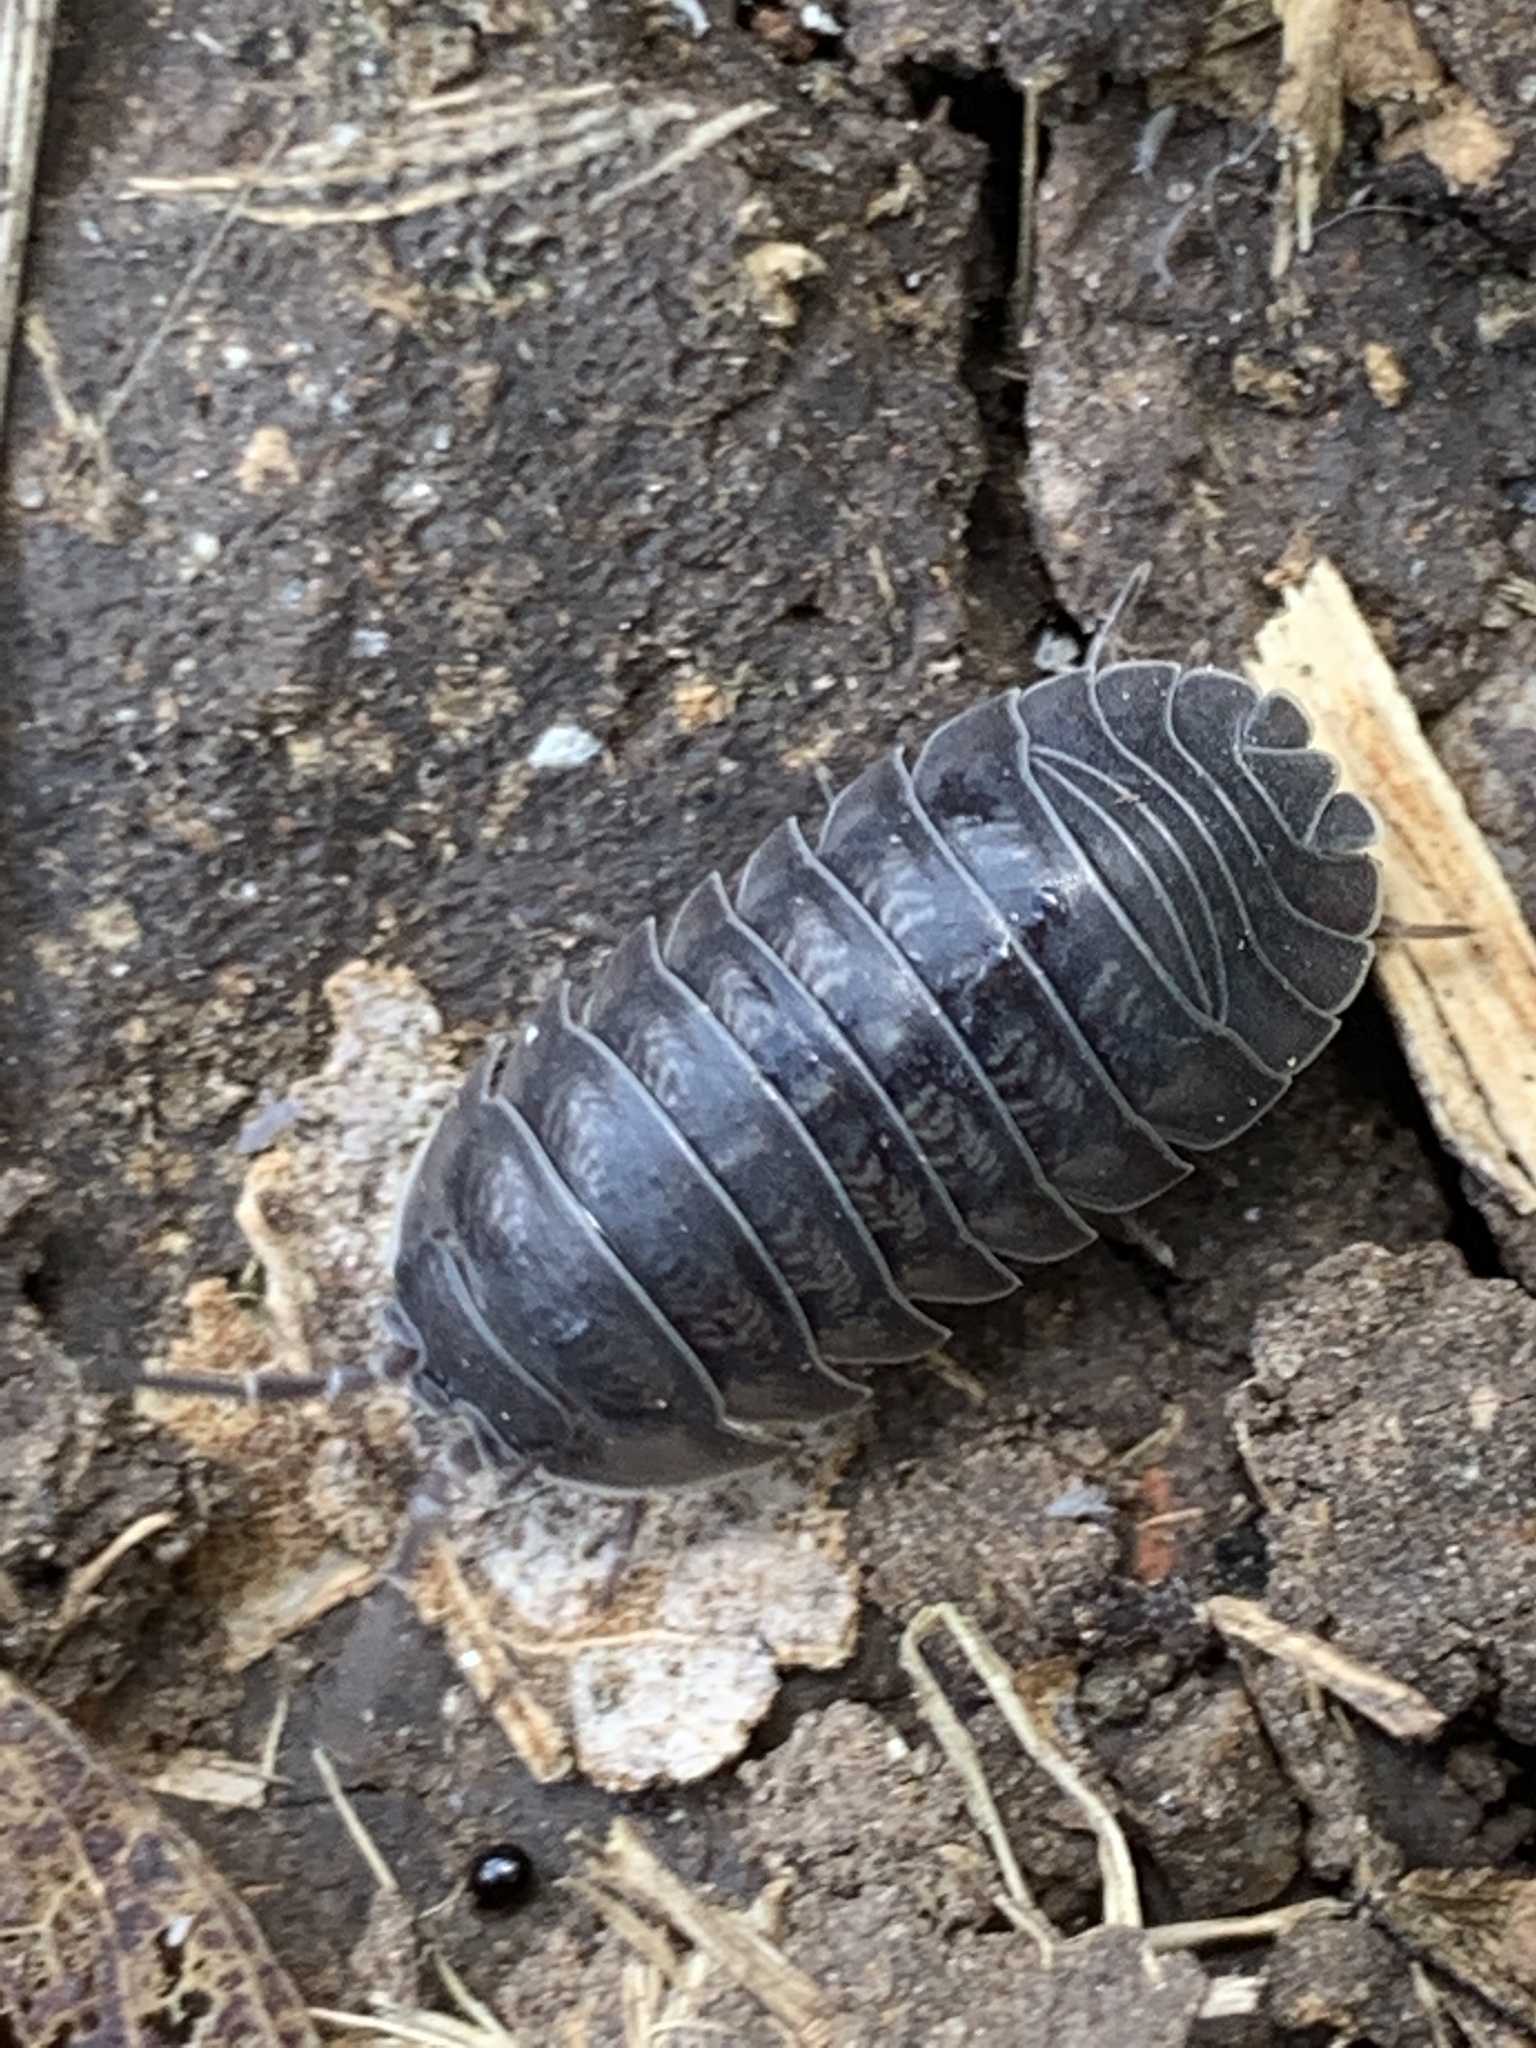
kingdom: Animalia
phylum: Arthropoda
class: Malacostraca
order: Isopoda
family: Armadillidiidae
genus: Armadillidium
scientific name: Armadillidium nasatum
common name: Isopod
